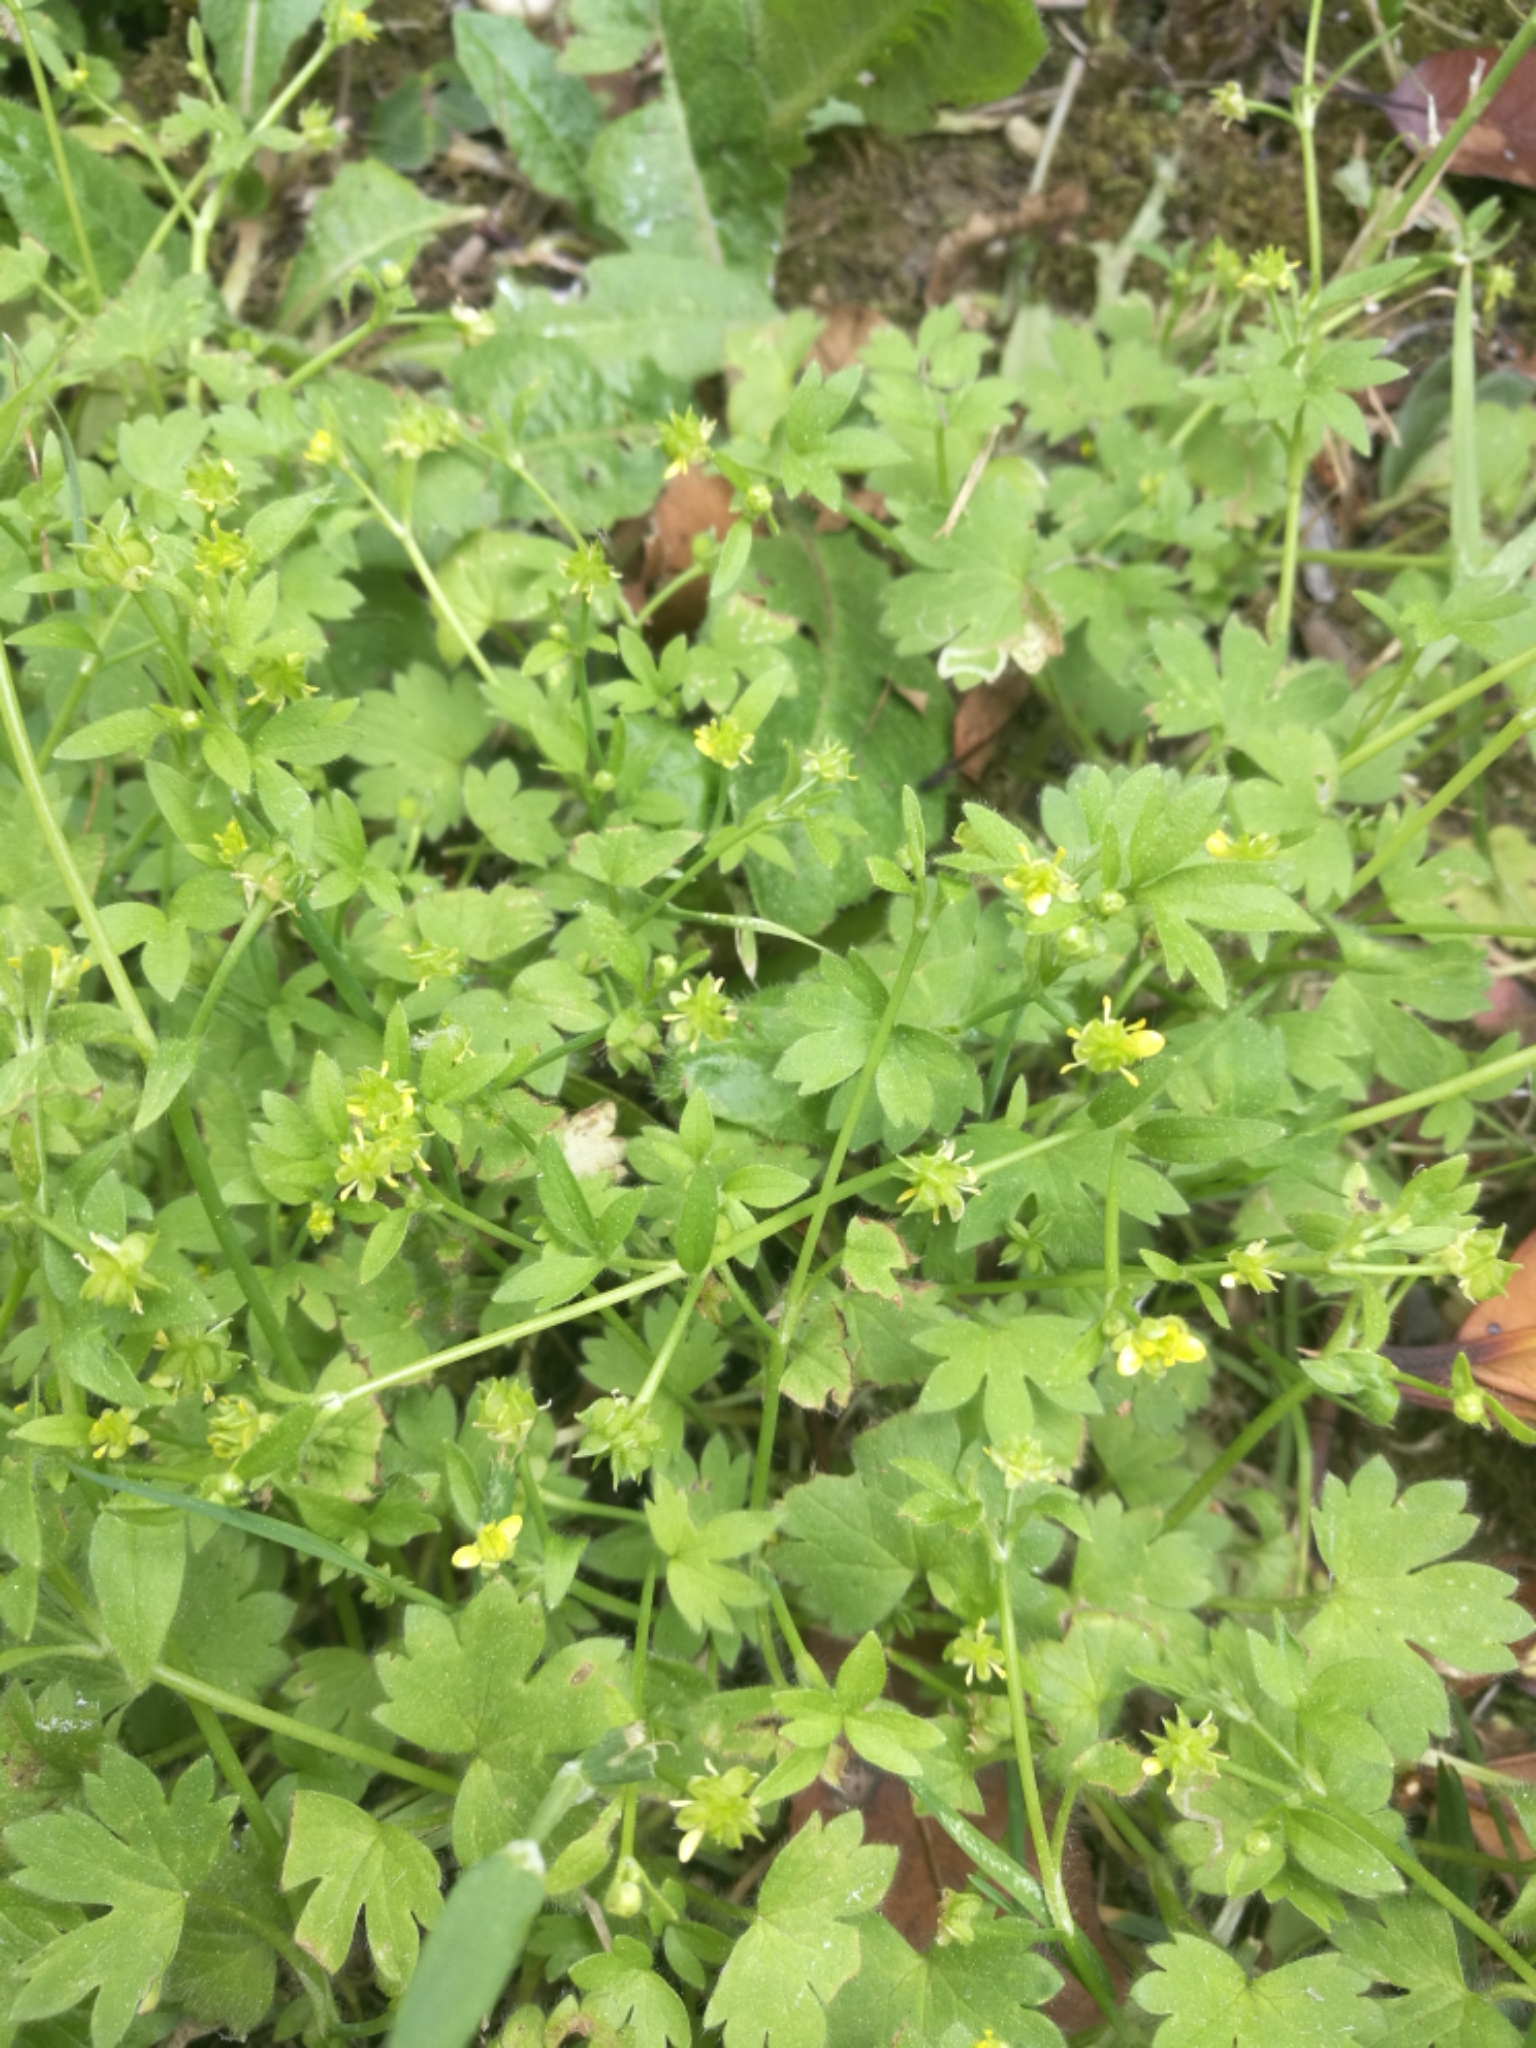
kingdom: Plantae
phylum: Tracheophyta
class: Magnoliopsida
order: Ranunculales
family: Ranunculaceae
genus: Ranunculus
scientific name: Ranunculus parviflorus
